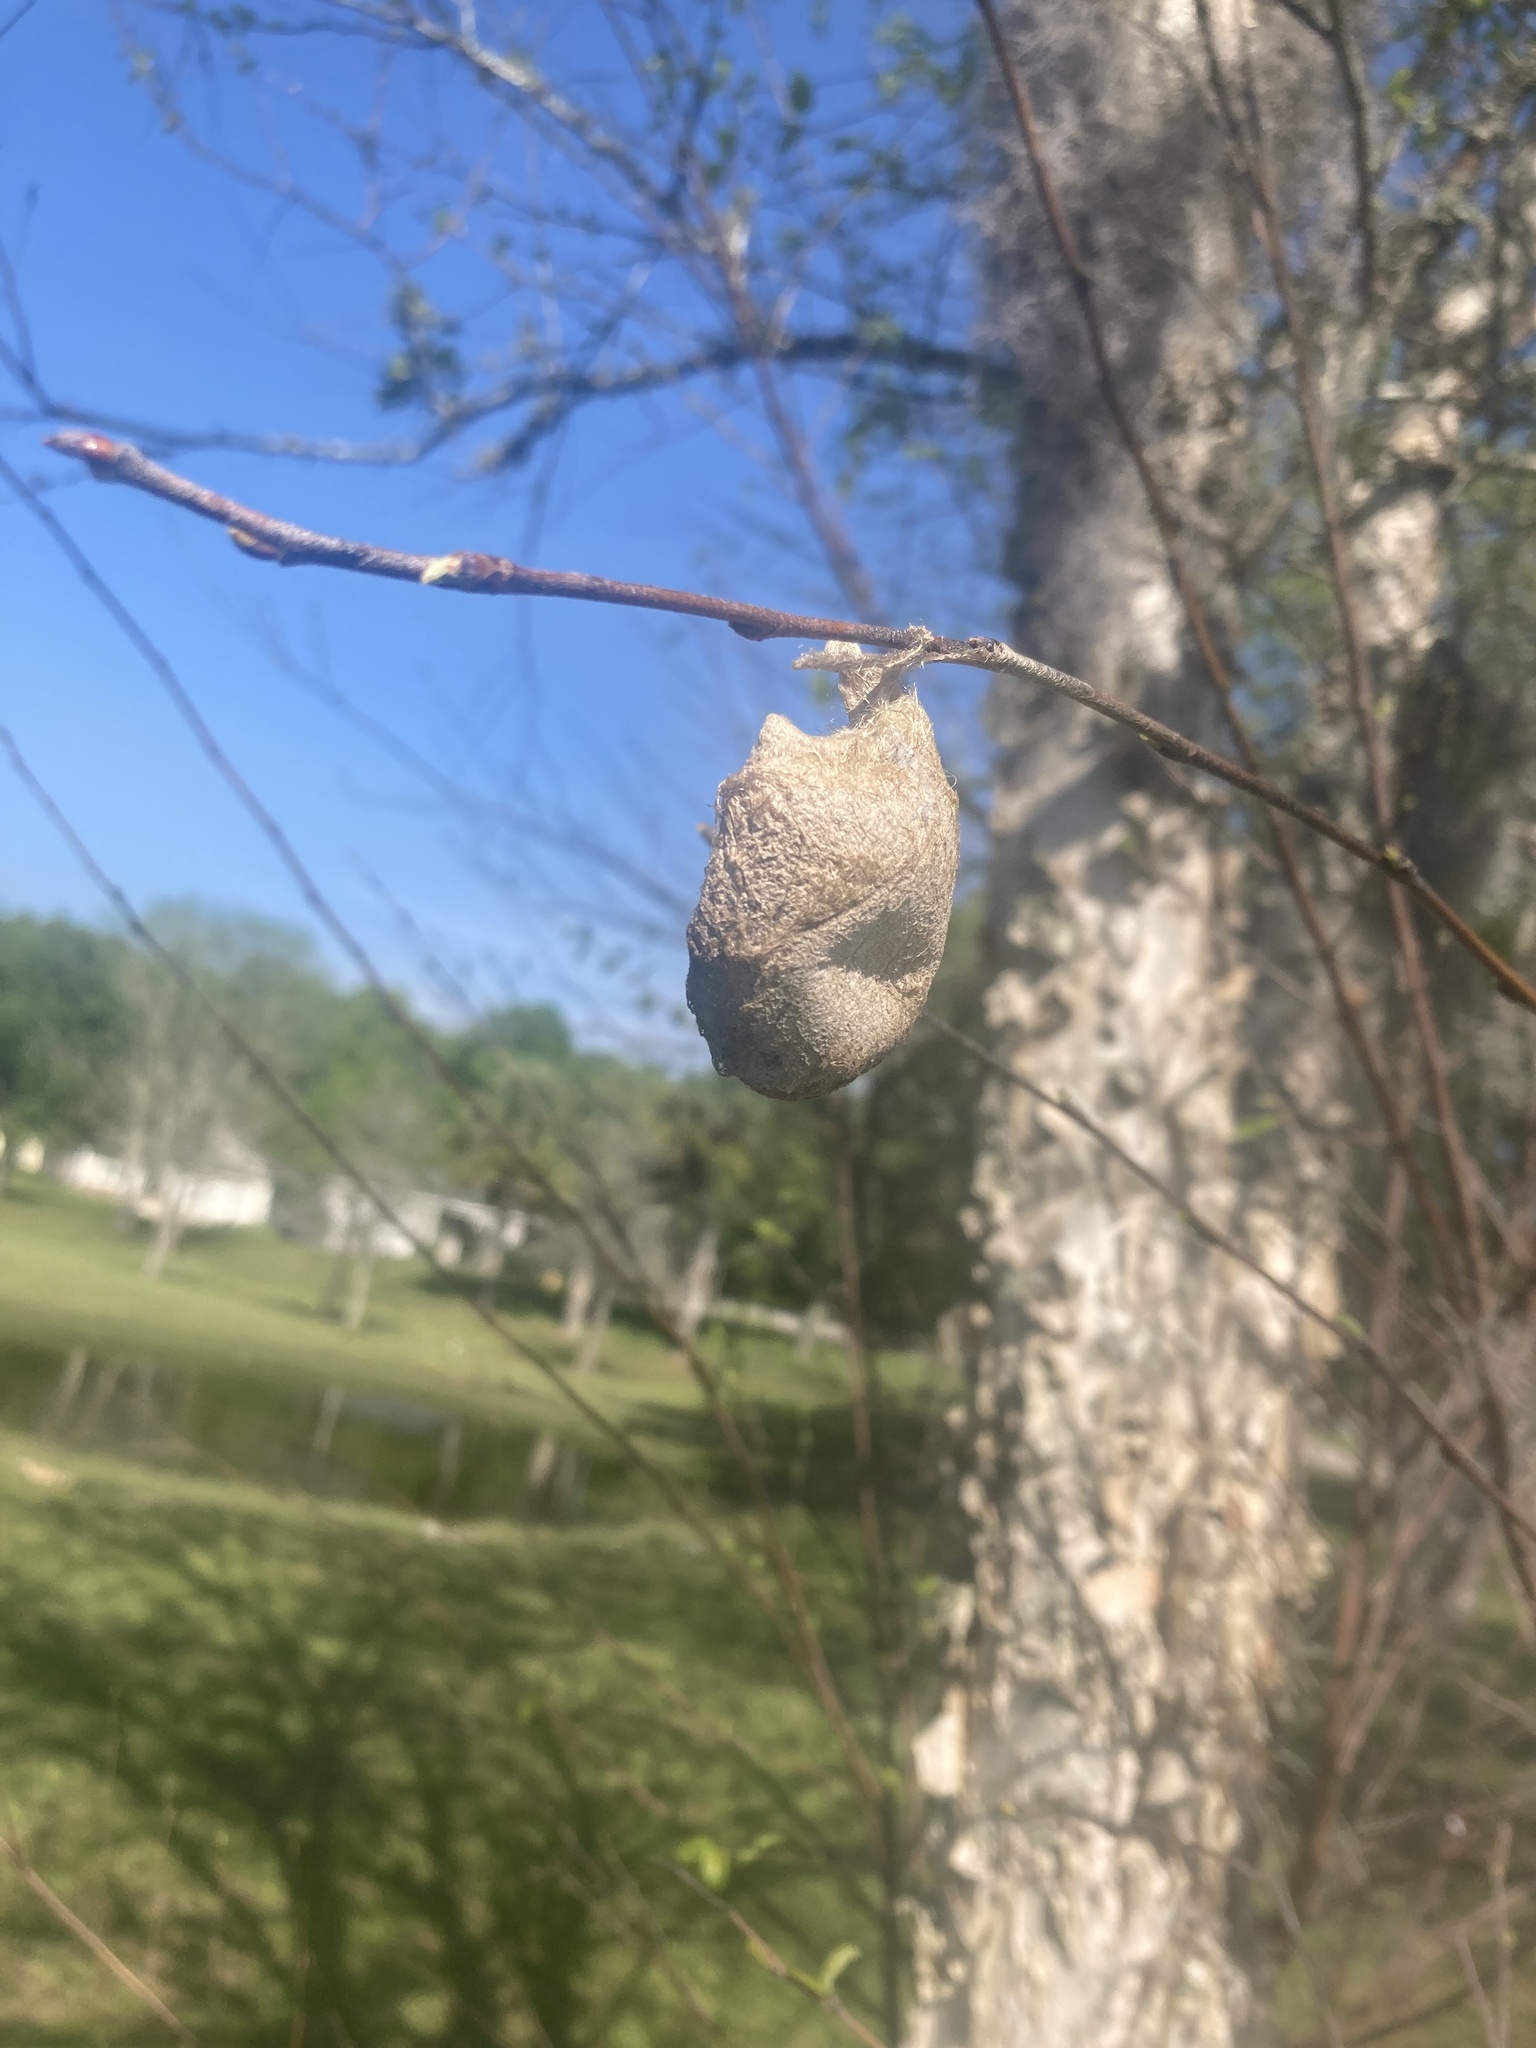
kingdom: Animalia
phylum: Arthropoda
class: Insecta
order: Lepidoptera
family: Saturniidae
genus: Antheraea
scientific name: Antheraea polyphemus
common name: Polyphemus moth
